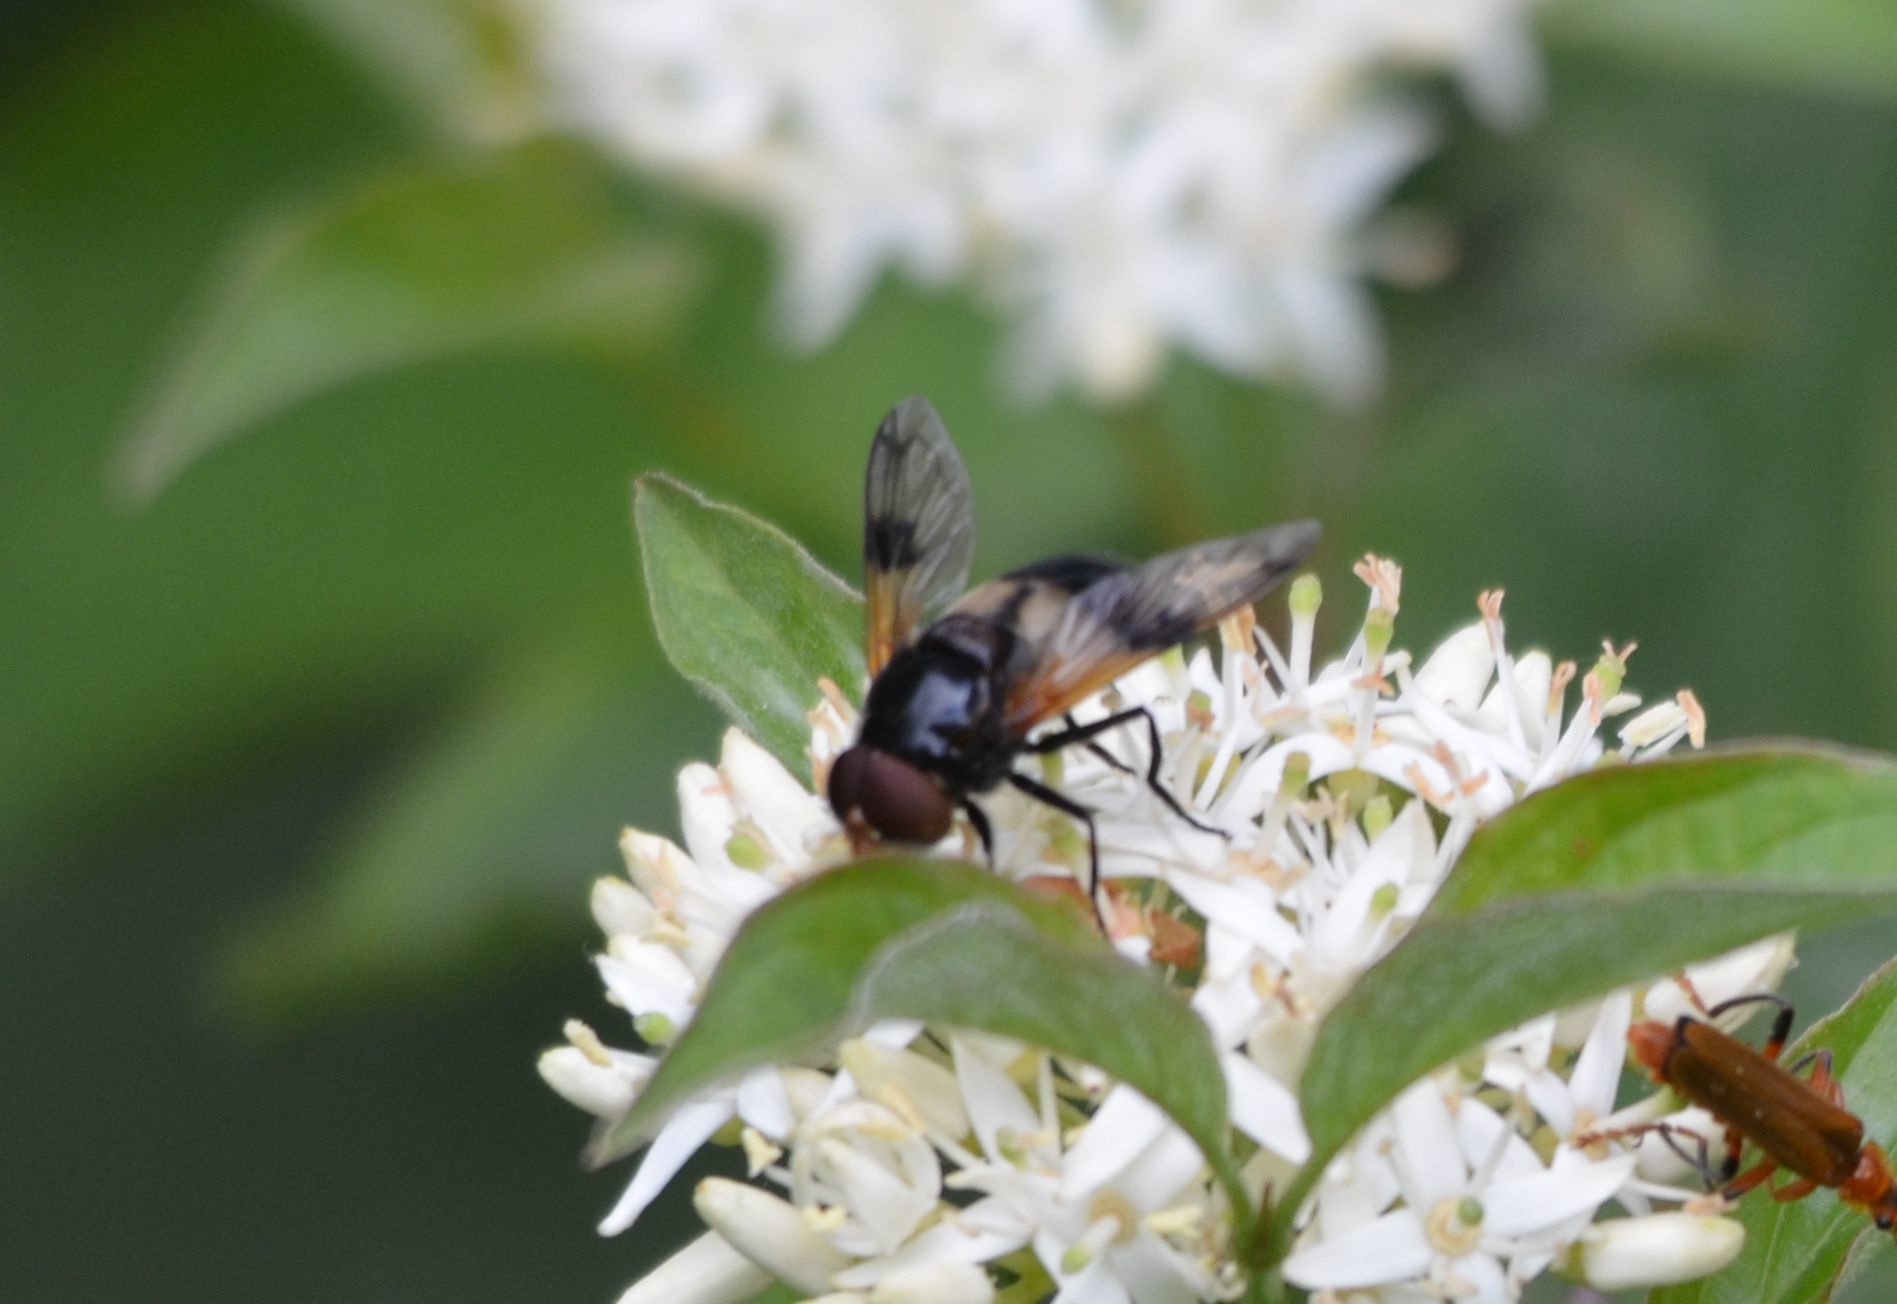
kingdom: Animalia
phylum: Arthropoda
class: Insecta
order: Diptera
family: Syrphidae
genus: Volucella
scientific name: Volucella pellucens
